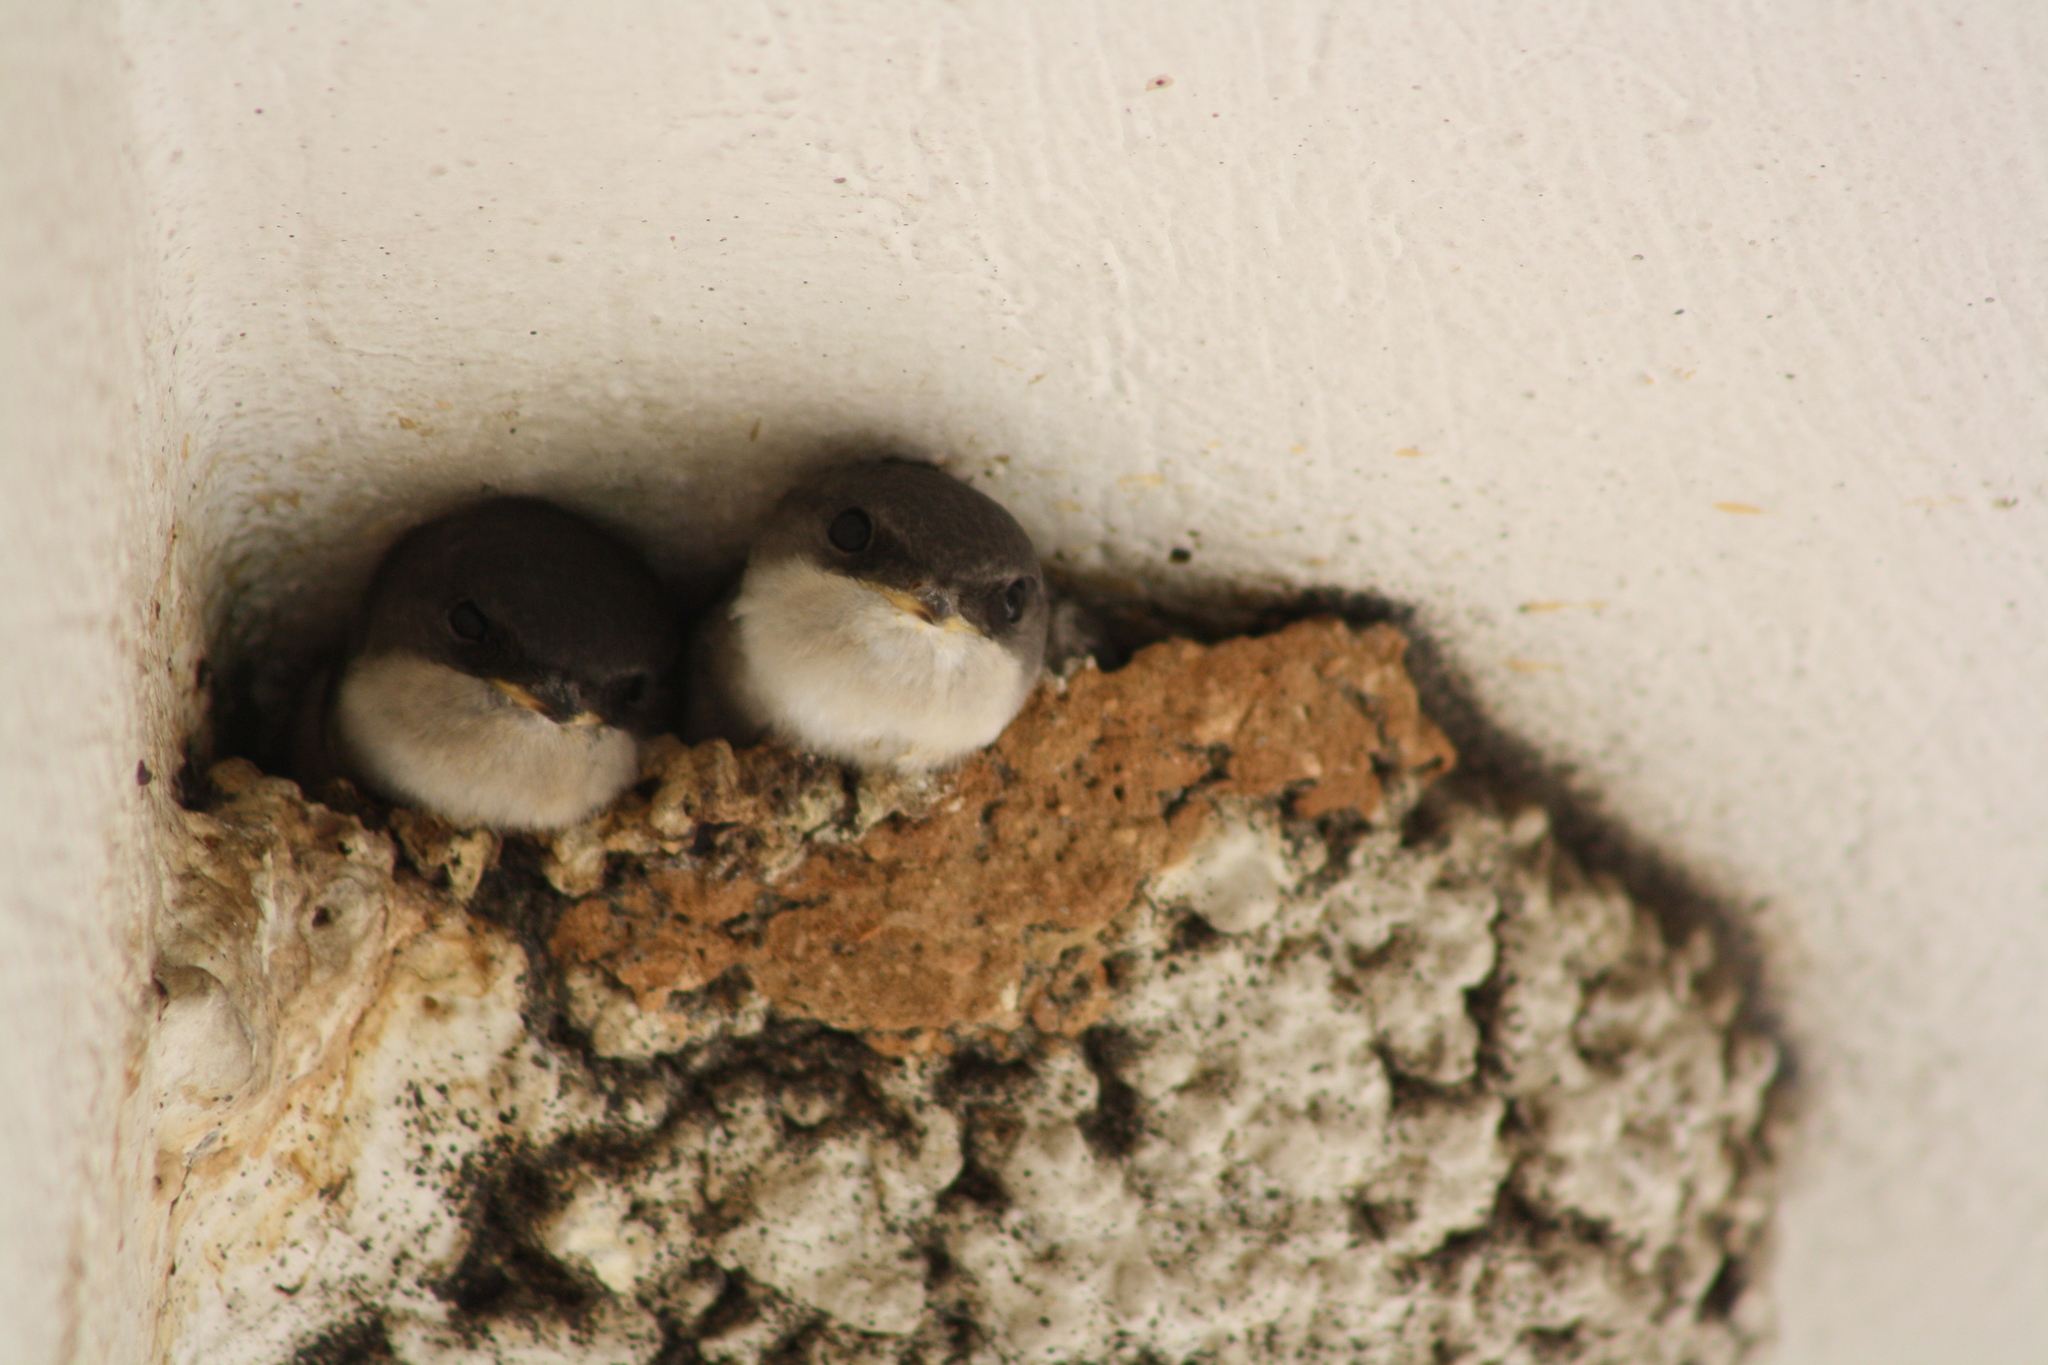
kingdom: Animalia
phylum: Chordata
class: Aves
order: Passeriformes
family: Hirundinidae
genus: Delichon
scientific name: Delichon urbicum
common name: Common house martin
